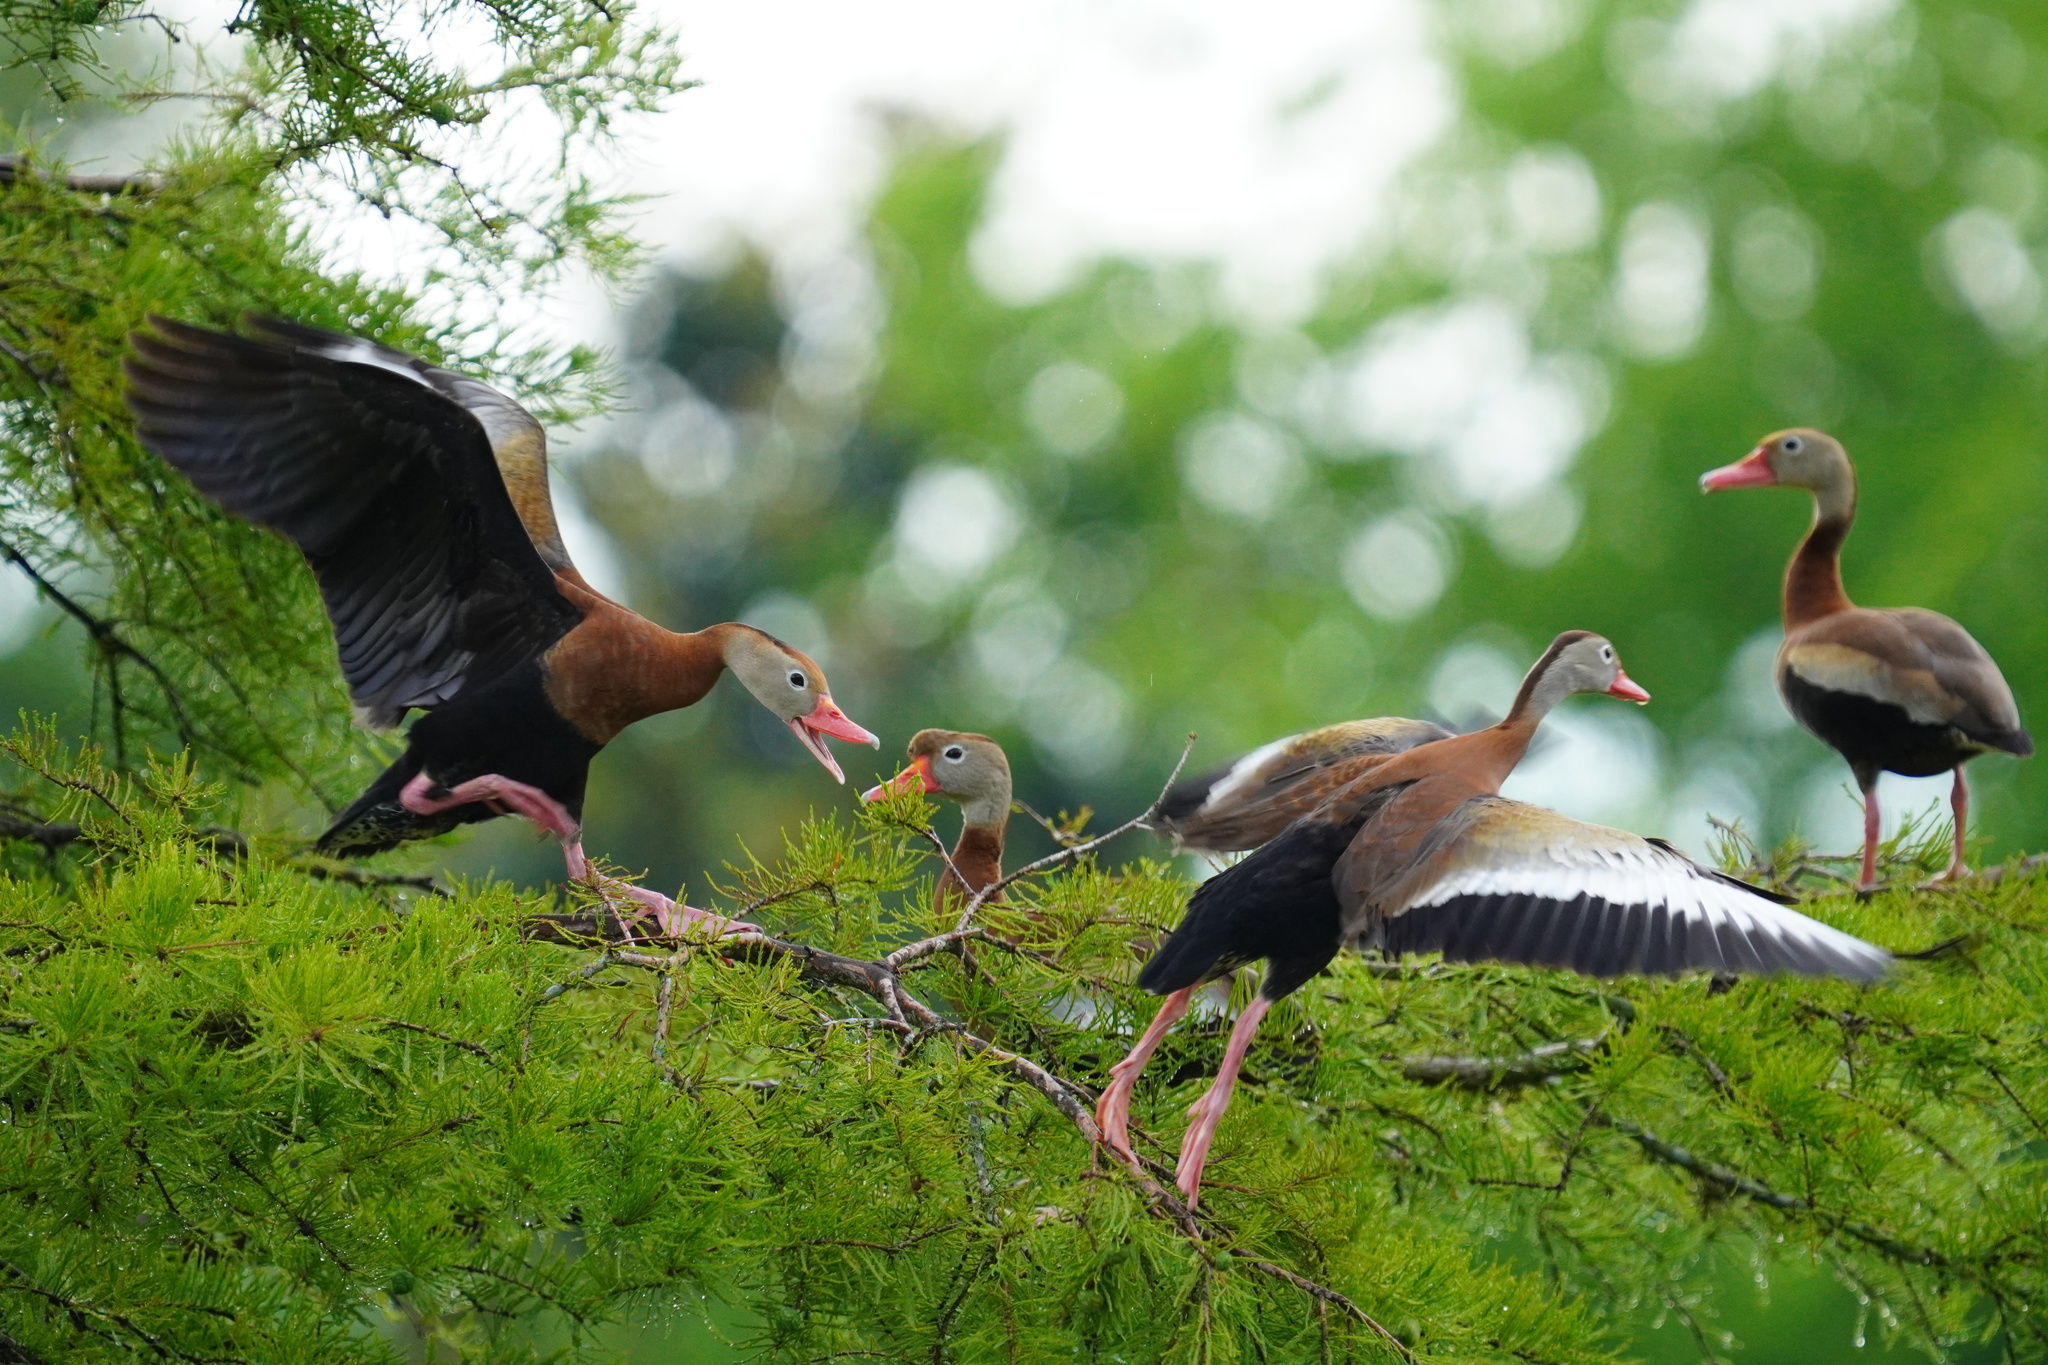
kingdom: Animalia
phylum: Chordata
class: Aves
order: Anseriformes
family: Anatidae
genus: Dendrocygna
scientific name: Dendrocygna autumnalis
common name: Black-bellied whistling duck
